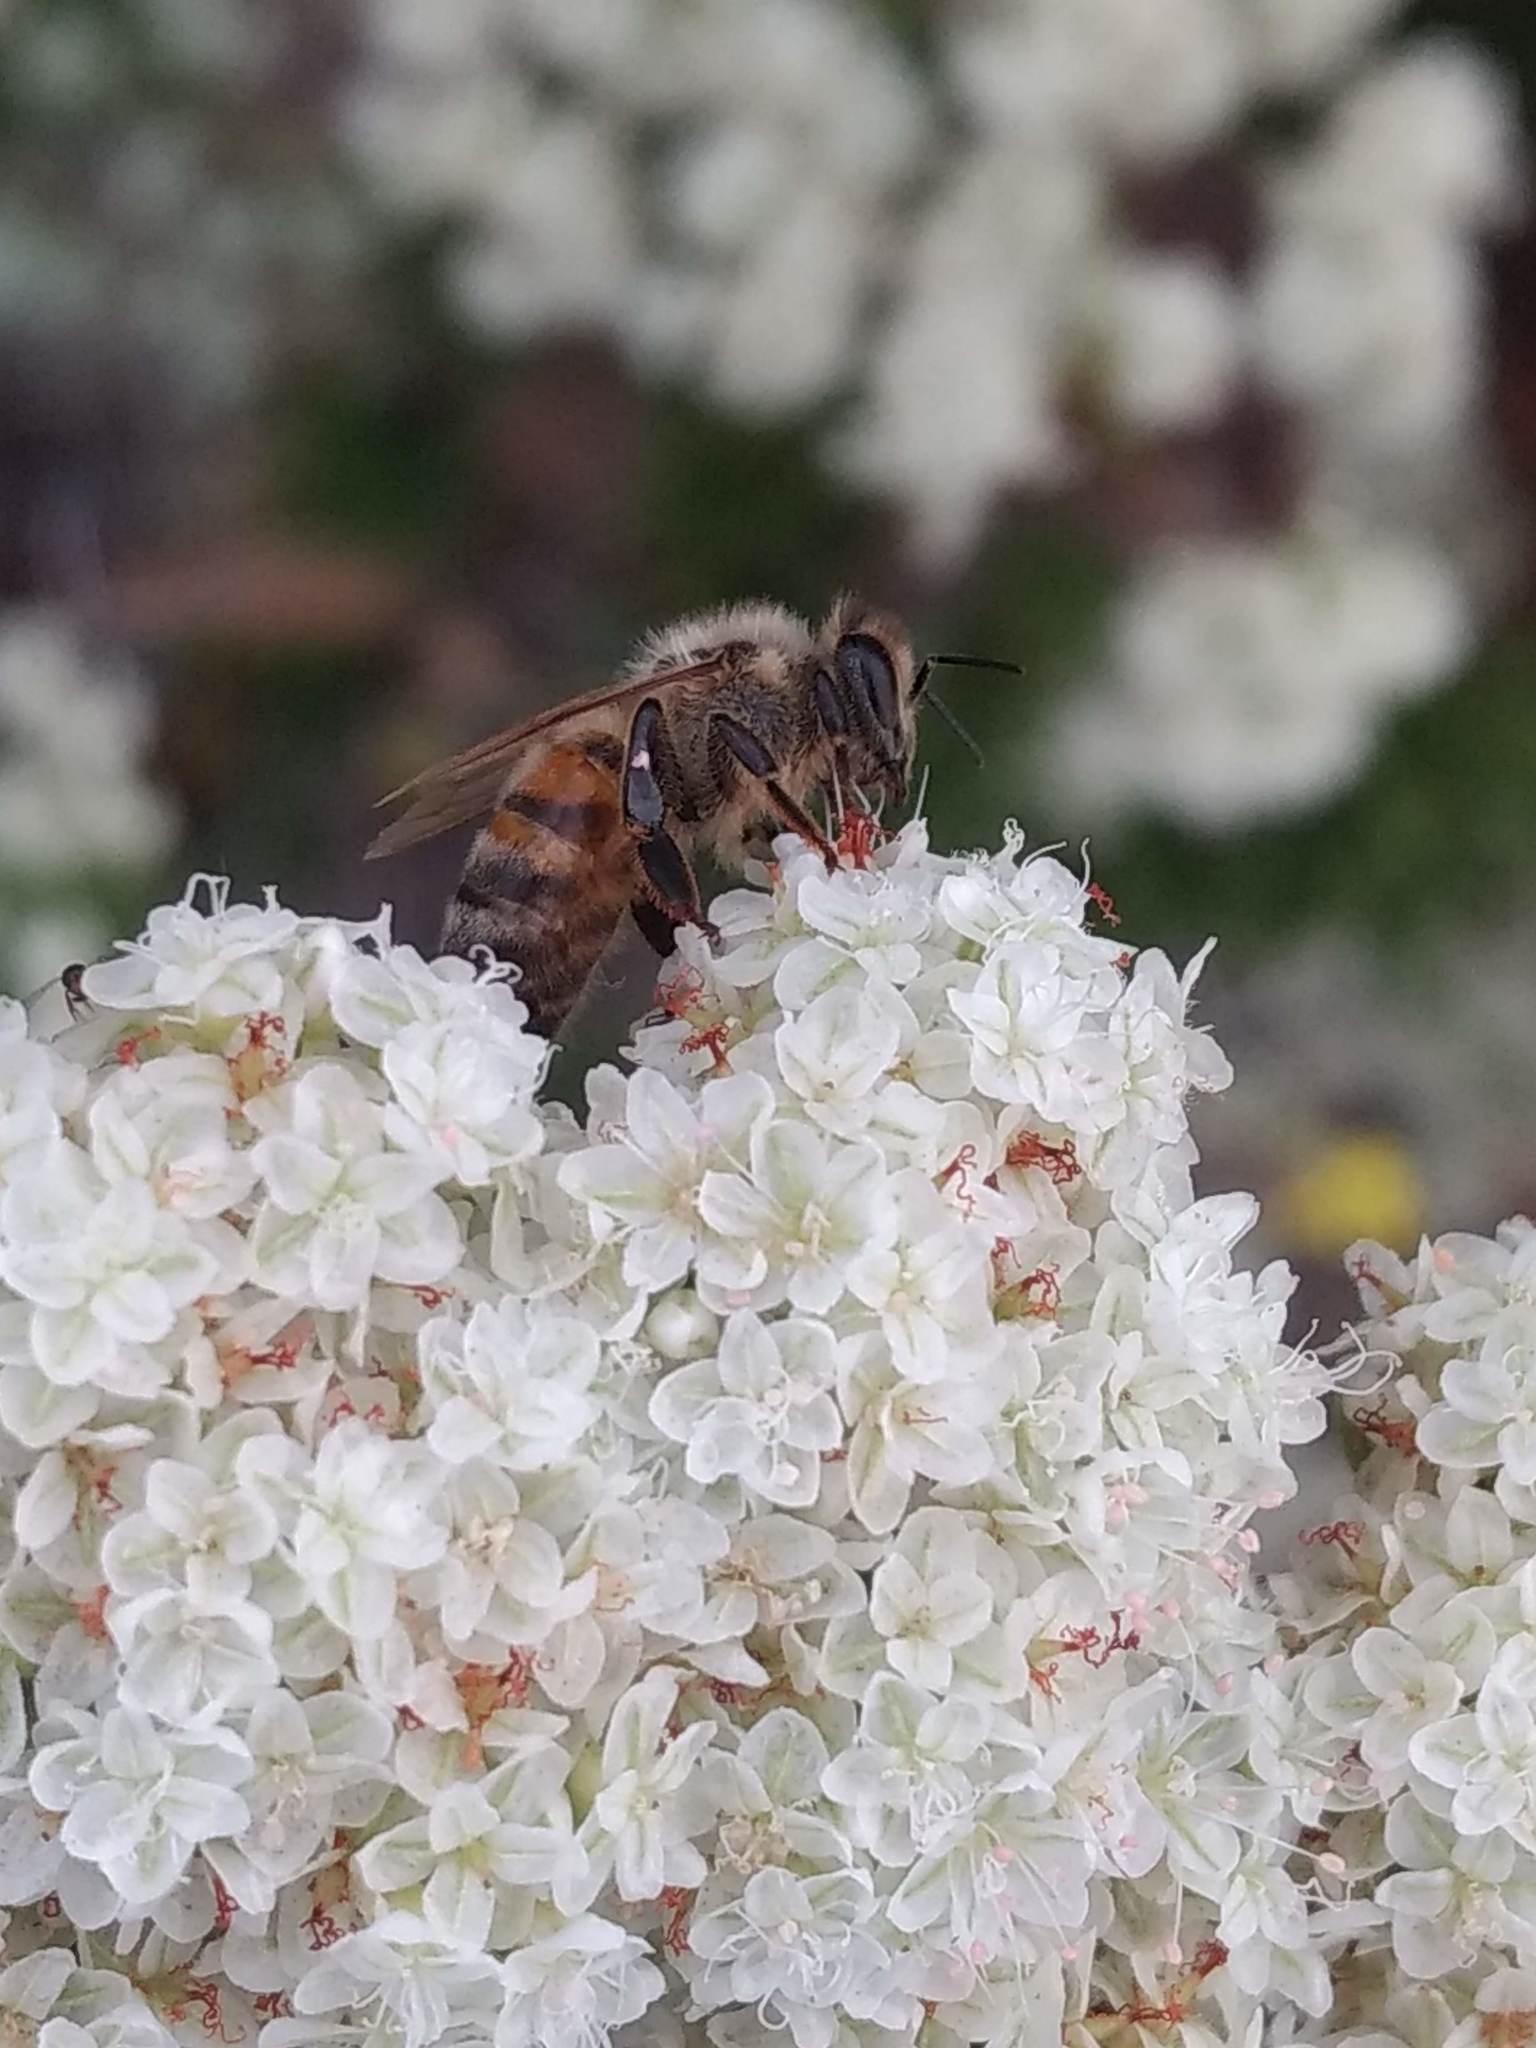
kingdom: Animalia
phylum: Arthropoda
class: Insecta
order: Hymenoptera
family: Apidae
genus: Apis
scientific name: Apis mellifera
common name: Honey bee
